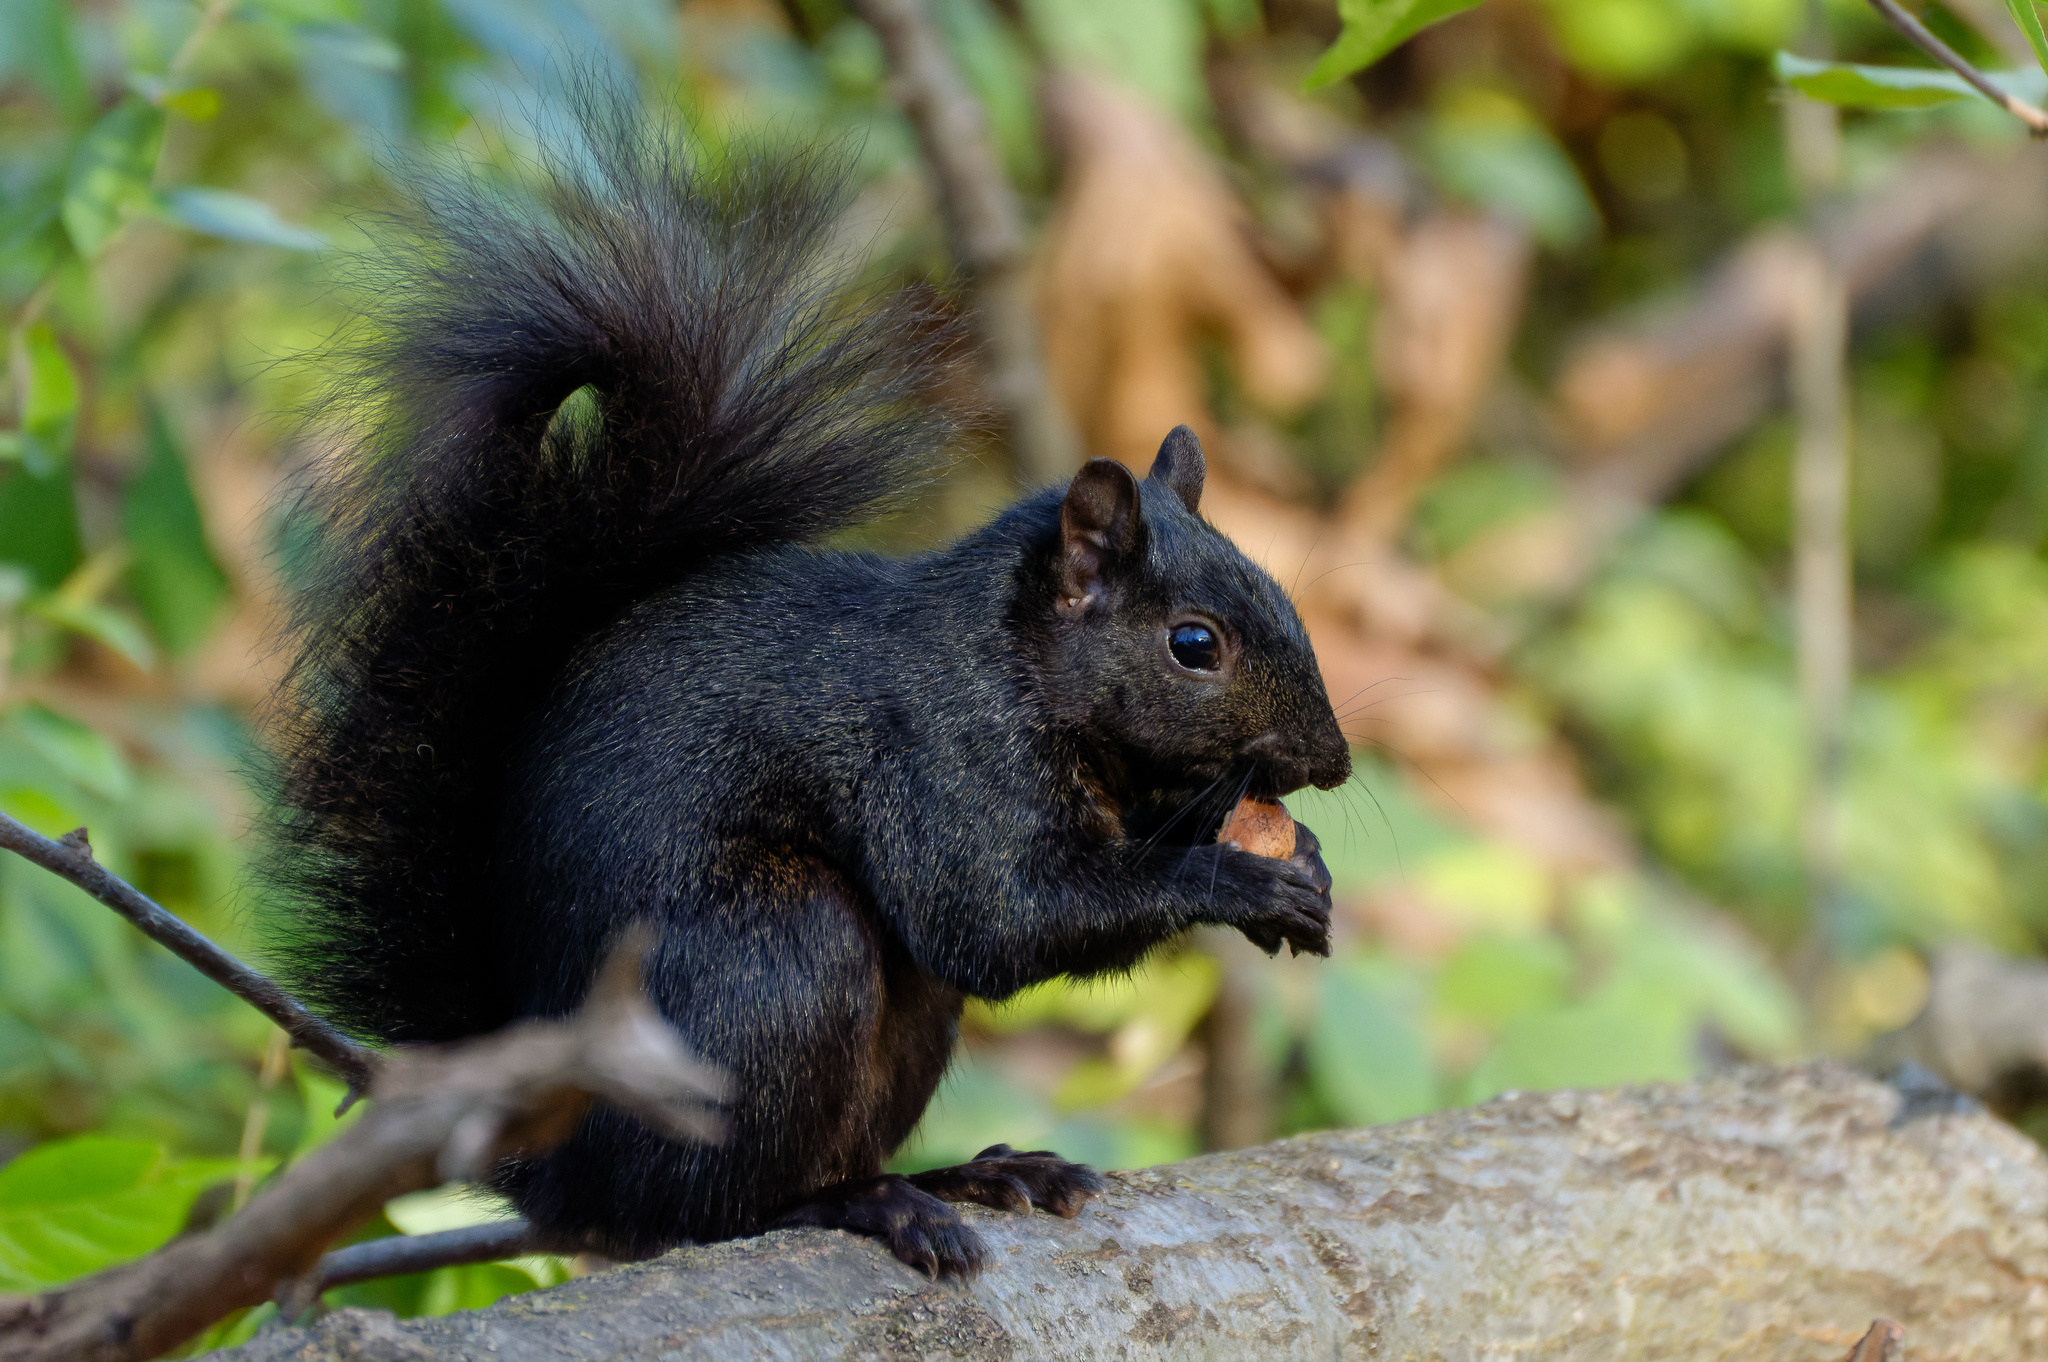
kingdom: Animalia
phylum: Chordata
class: Mammalia
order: Rodentia
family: Sciuridae
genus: Sciurus
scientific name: Sciurus carolinensis
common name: Eastern gray squirrel
